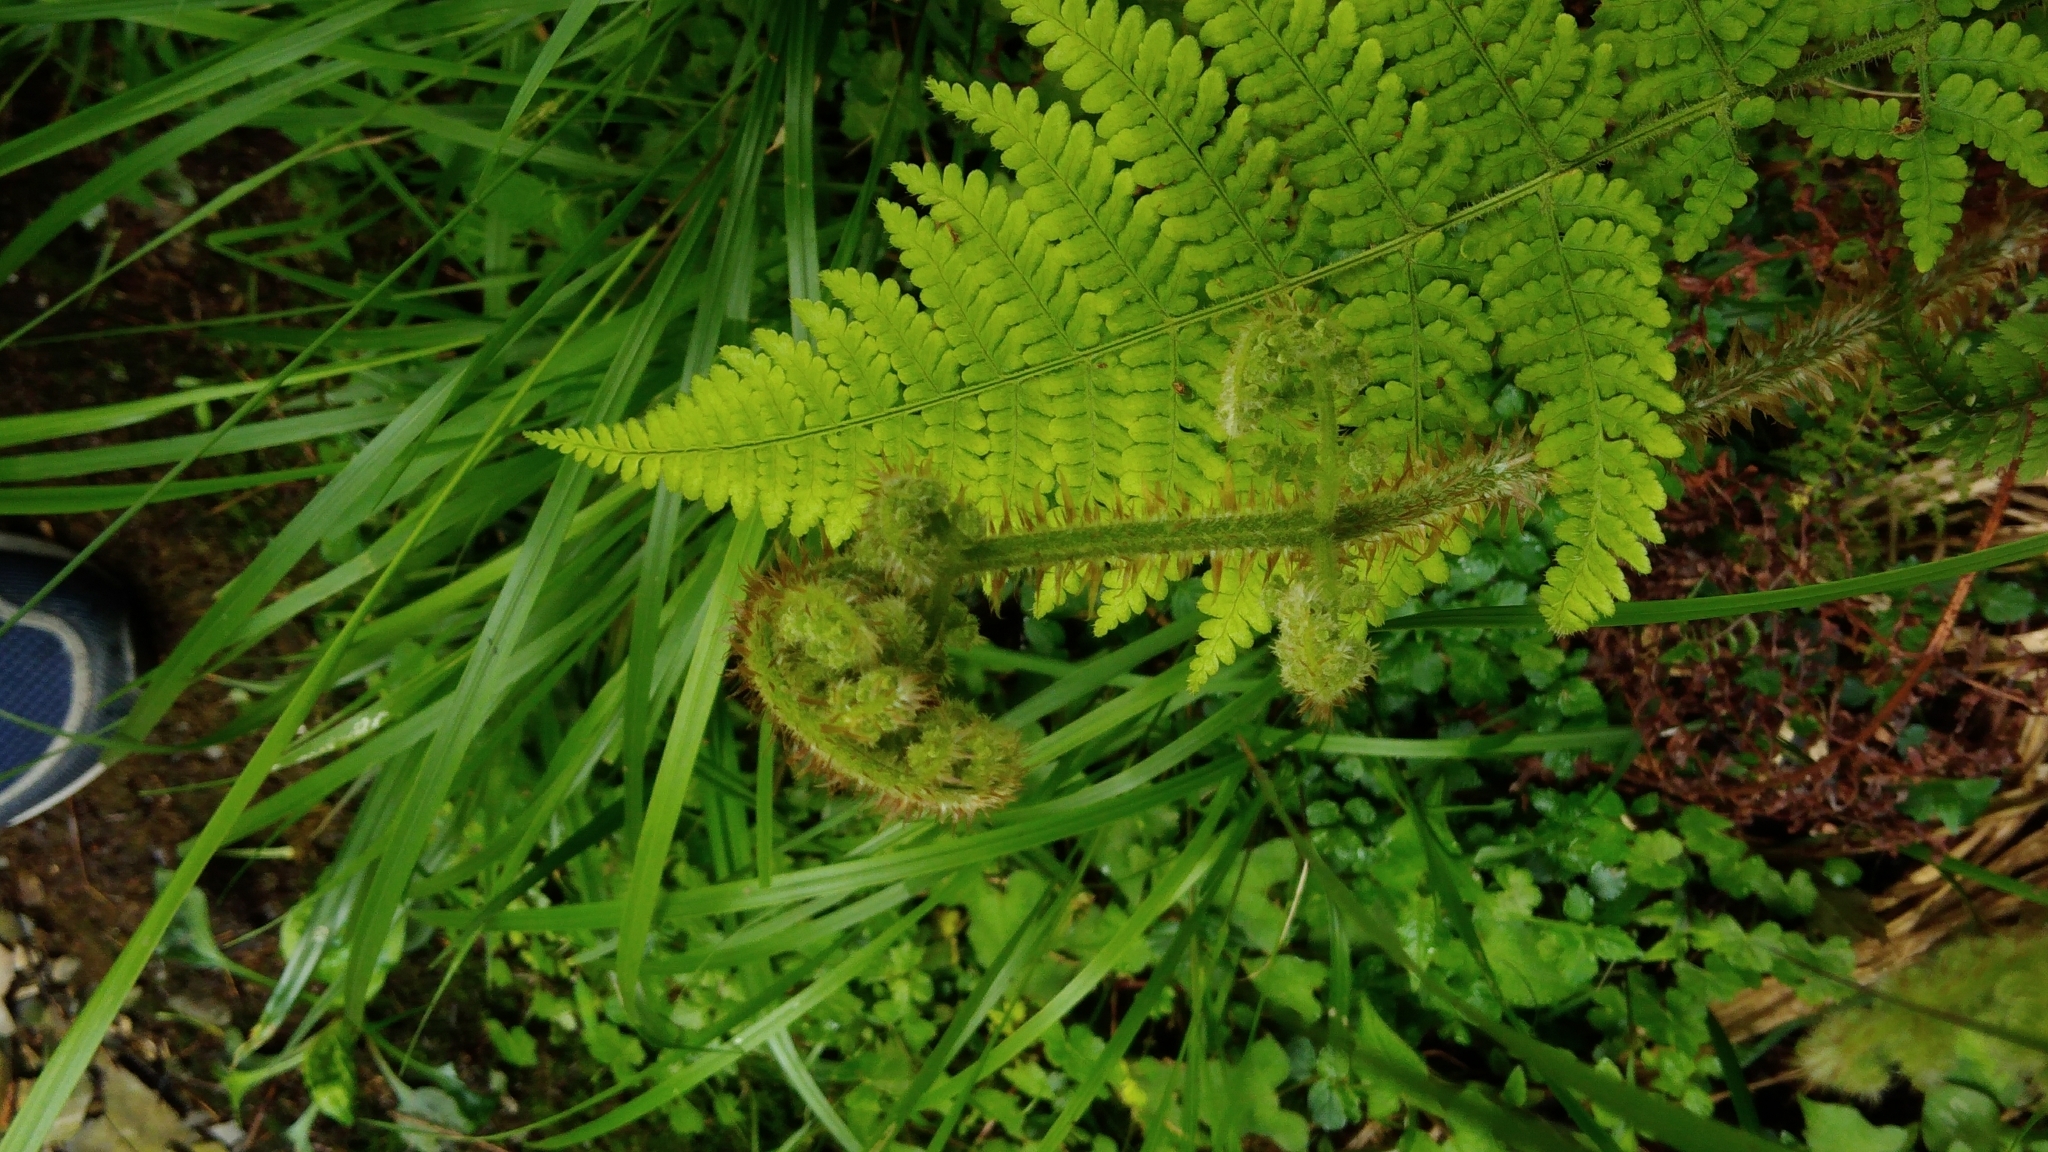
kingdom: Plantae
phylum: Tracheophyta
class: Polypodiopsida
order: Polypodiales
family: Dryopteridaceae
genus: Dryopteris
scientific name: Dryopteris peranema
